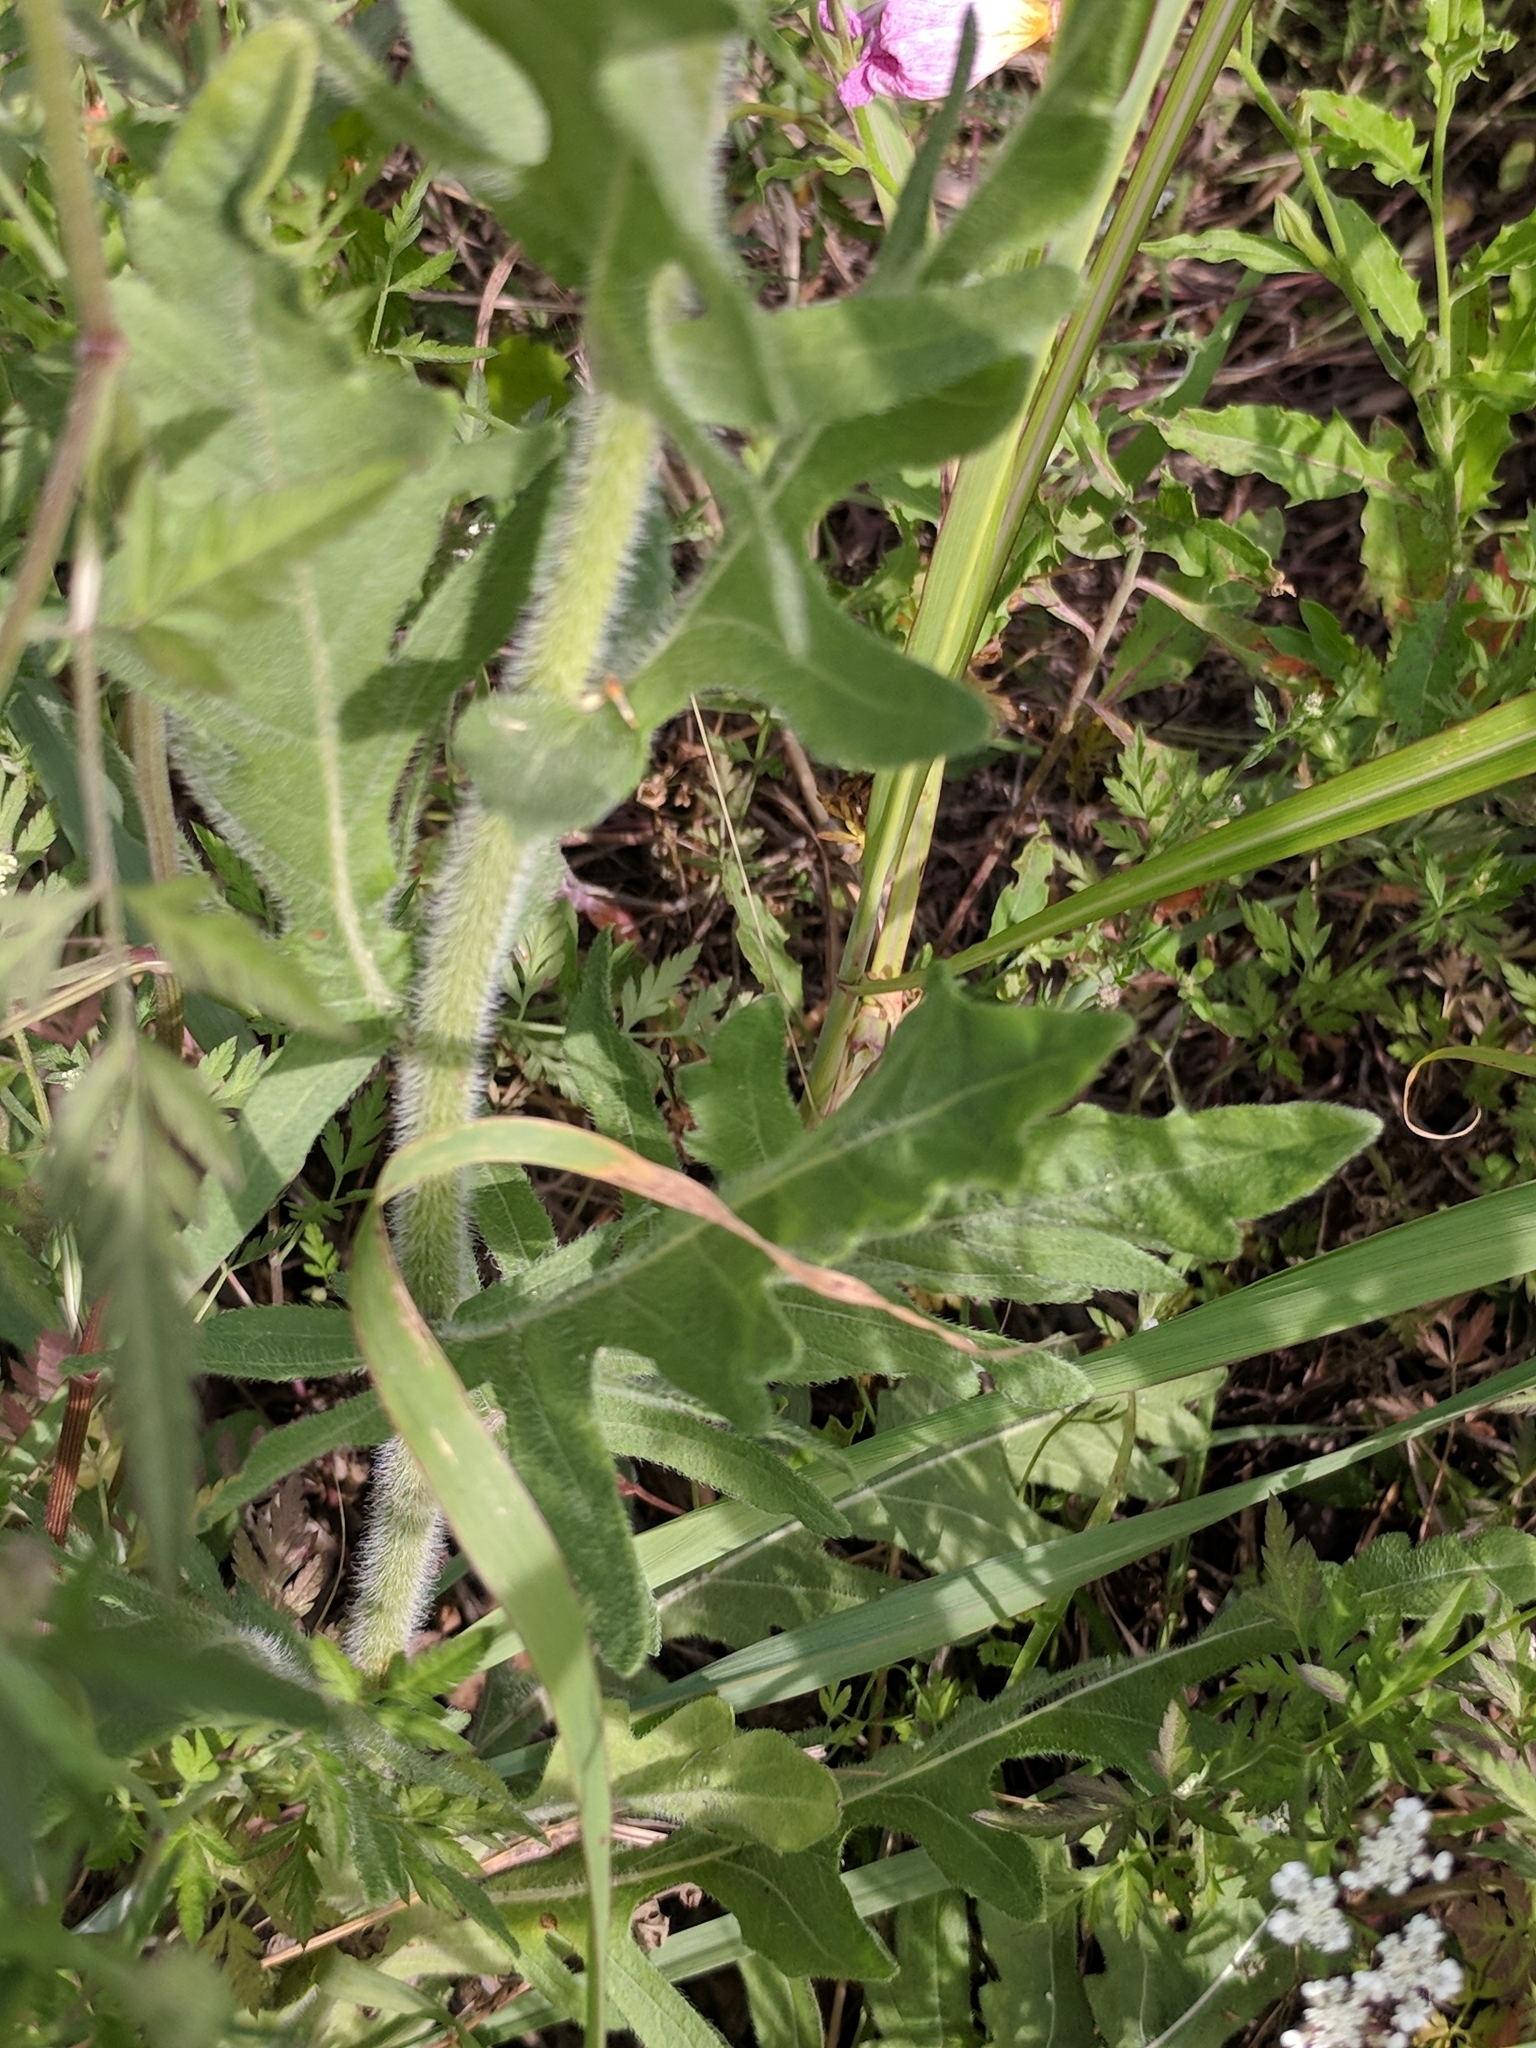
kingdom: Plantae
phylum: Tracheophyta
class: Magnoliopsida
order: Asterales
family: Asteraceae
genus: Engelmannia
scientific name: Engelmannia peristenia
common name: Engelmann's daisy
